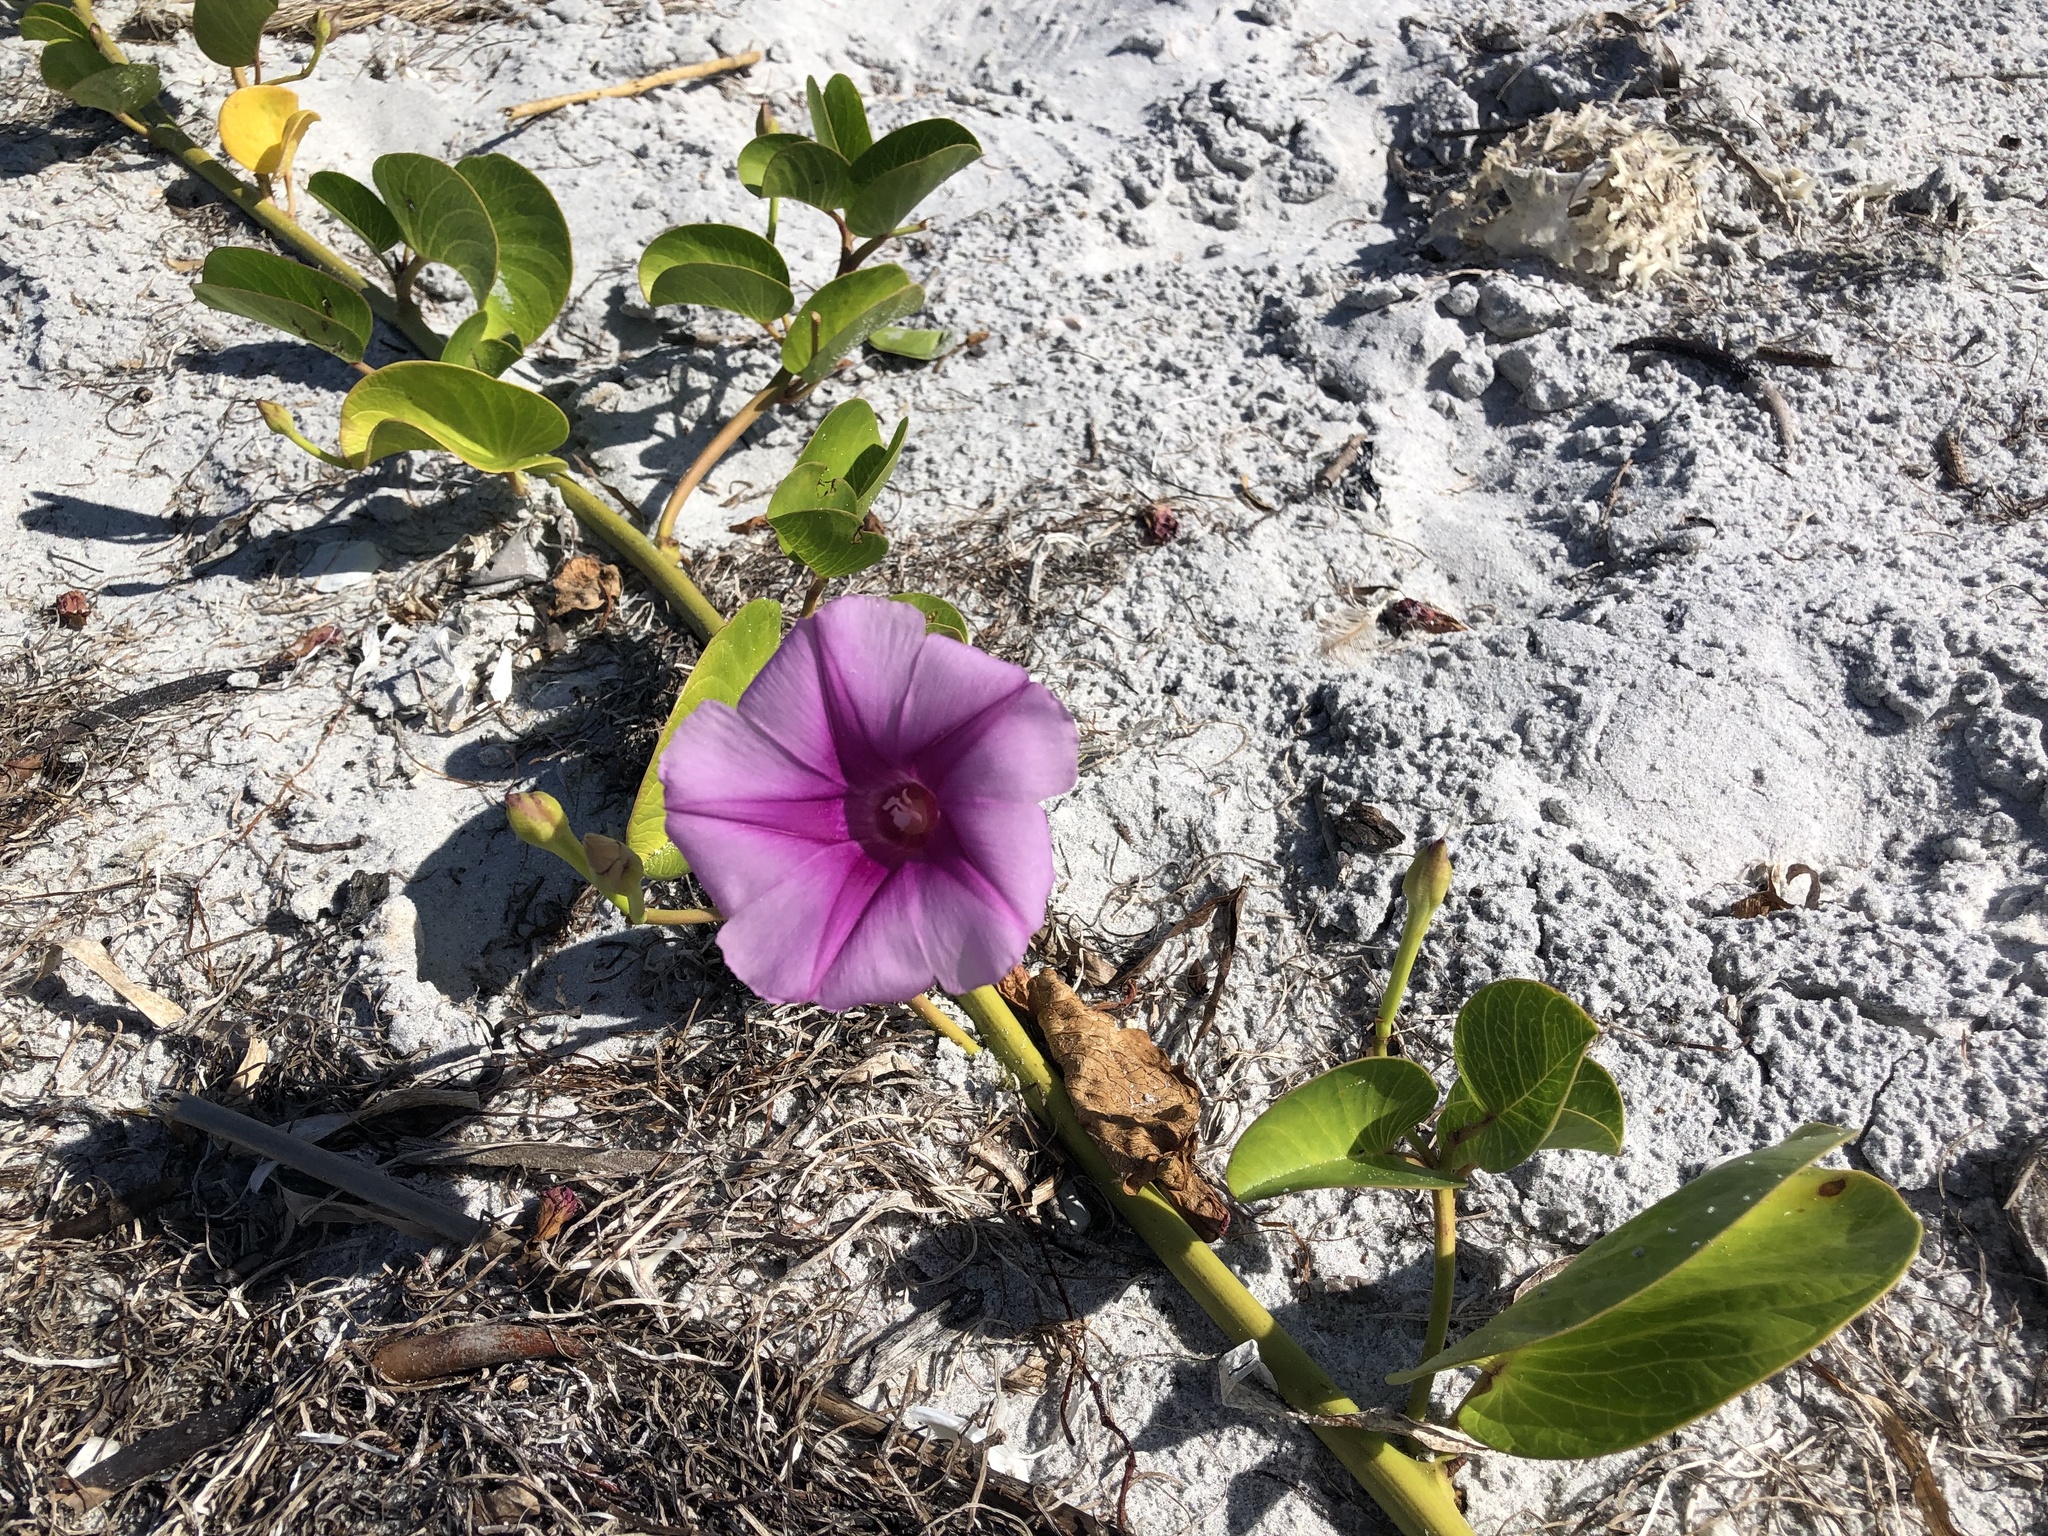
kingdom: Plantae
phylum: Tracheophyta
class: Magnoliopsida
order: Solanales
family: Convolvulaceae
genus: Ipomoea
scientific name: Ipomoea pes-caprae
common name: Beach morning glory
